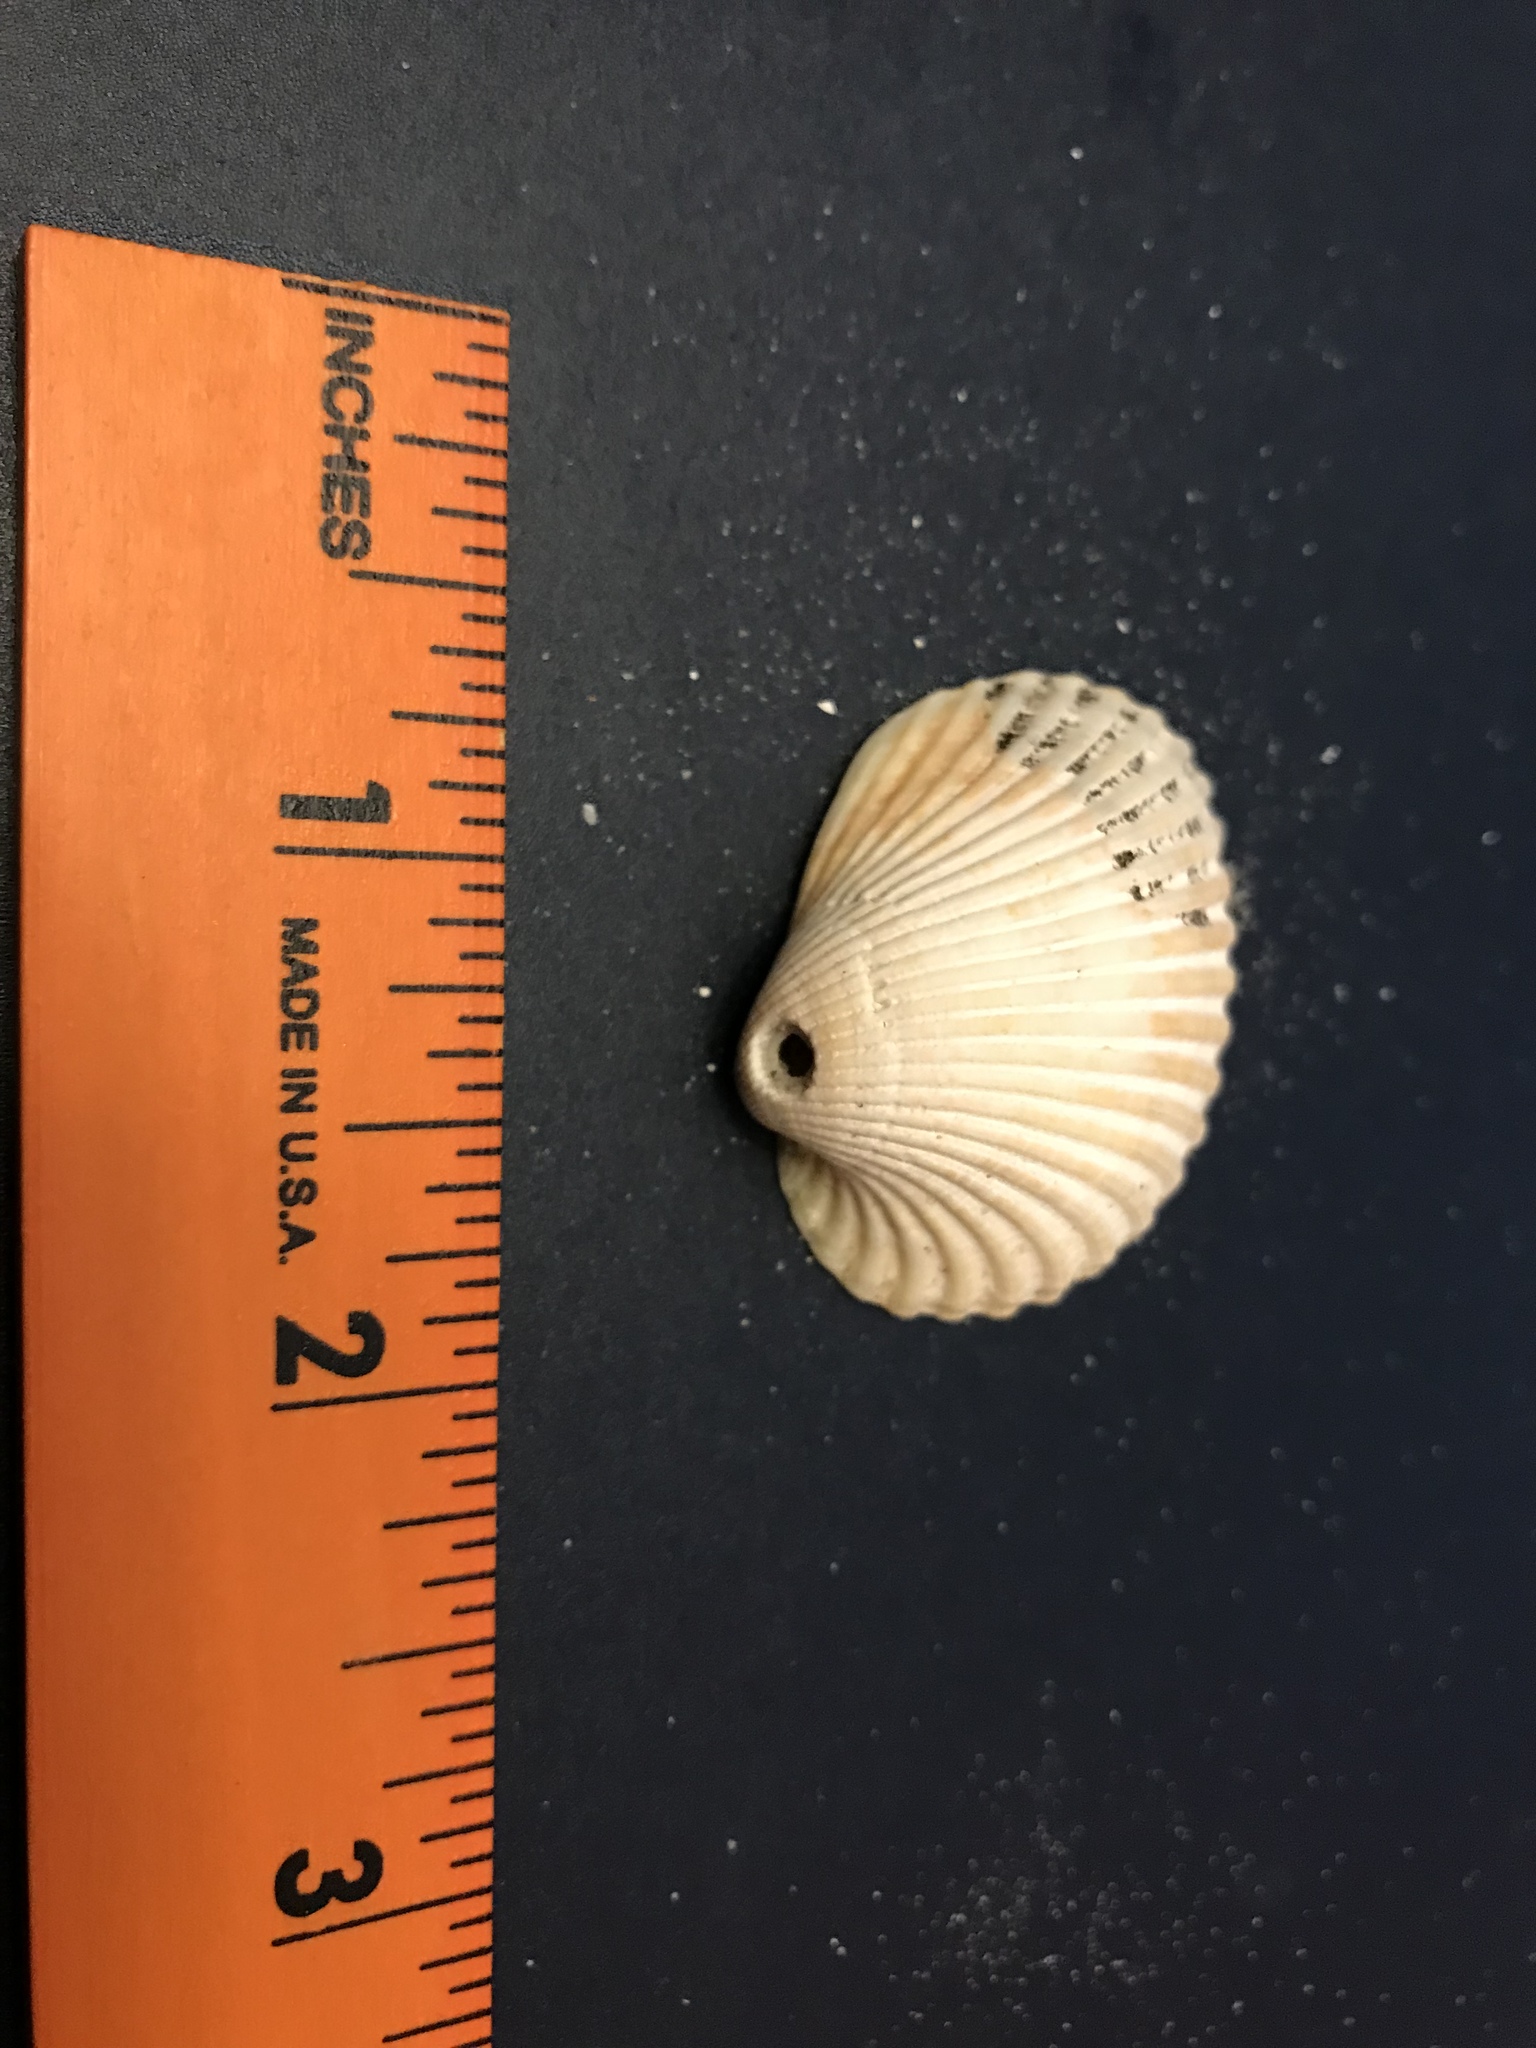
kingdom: Animalia
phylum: Mollusca
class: Bivalvia
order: Arcida
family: Arcidae
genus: Lunarca
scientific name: Lunarca ovalis
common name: Blood ark
